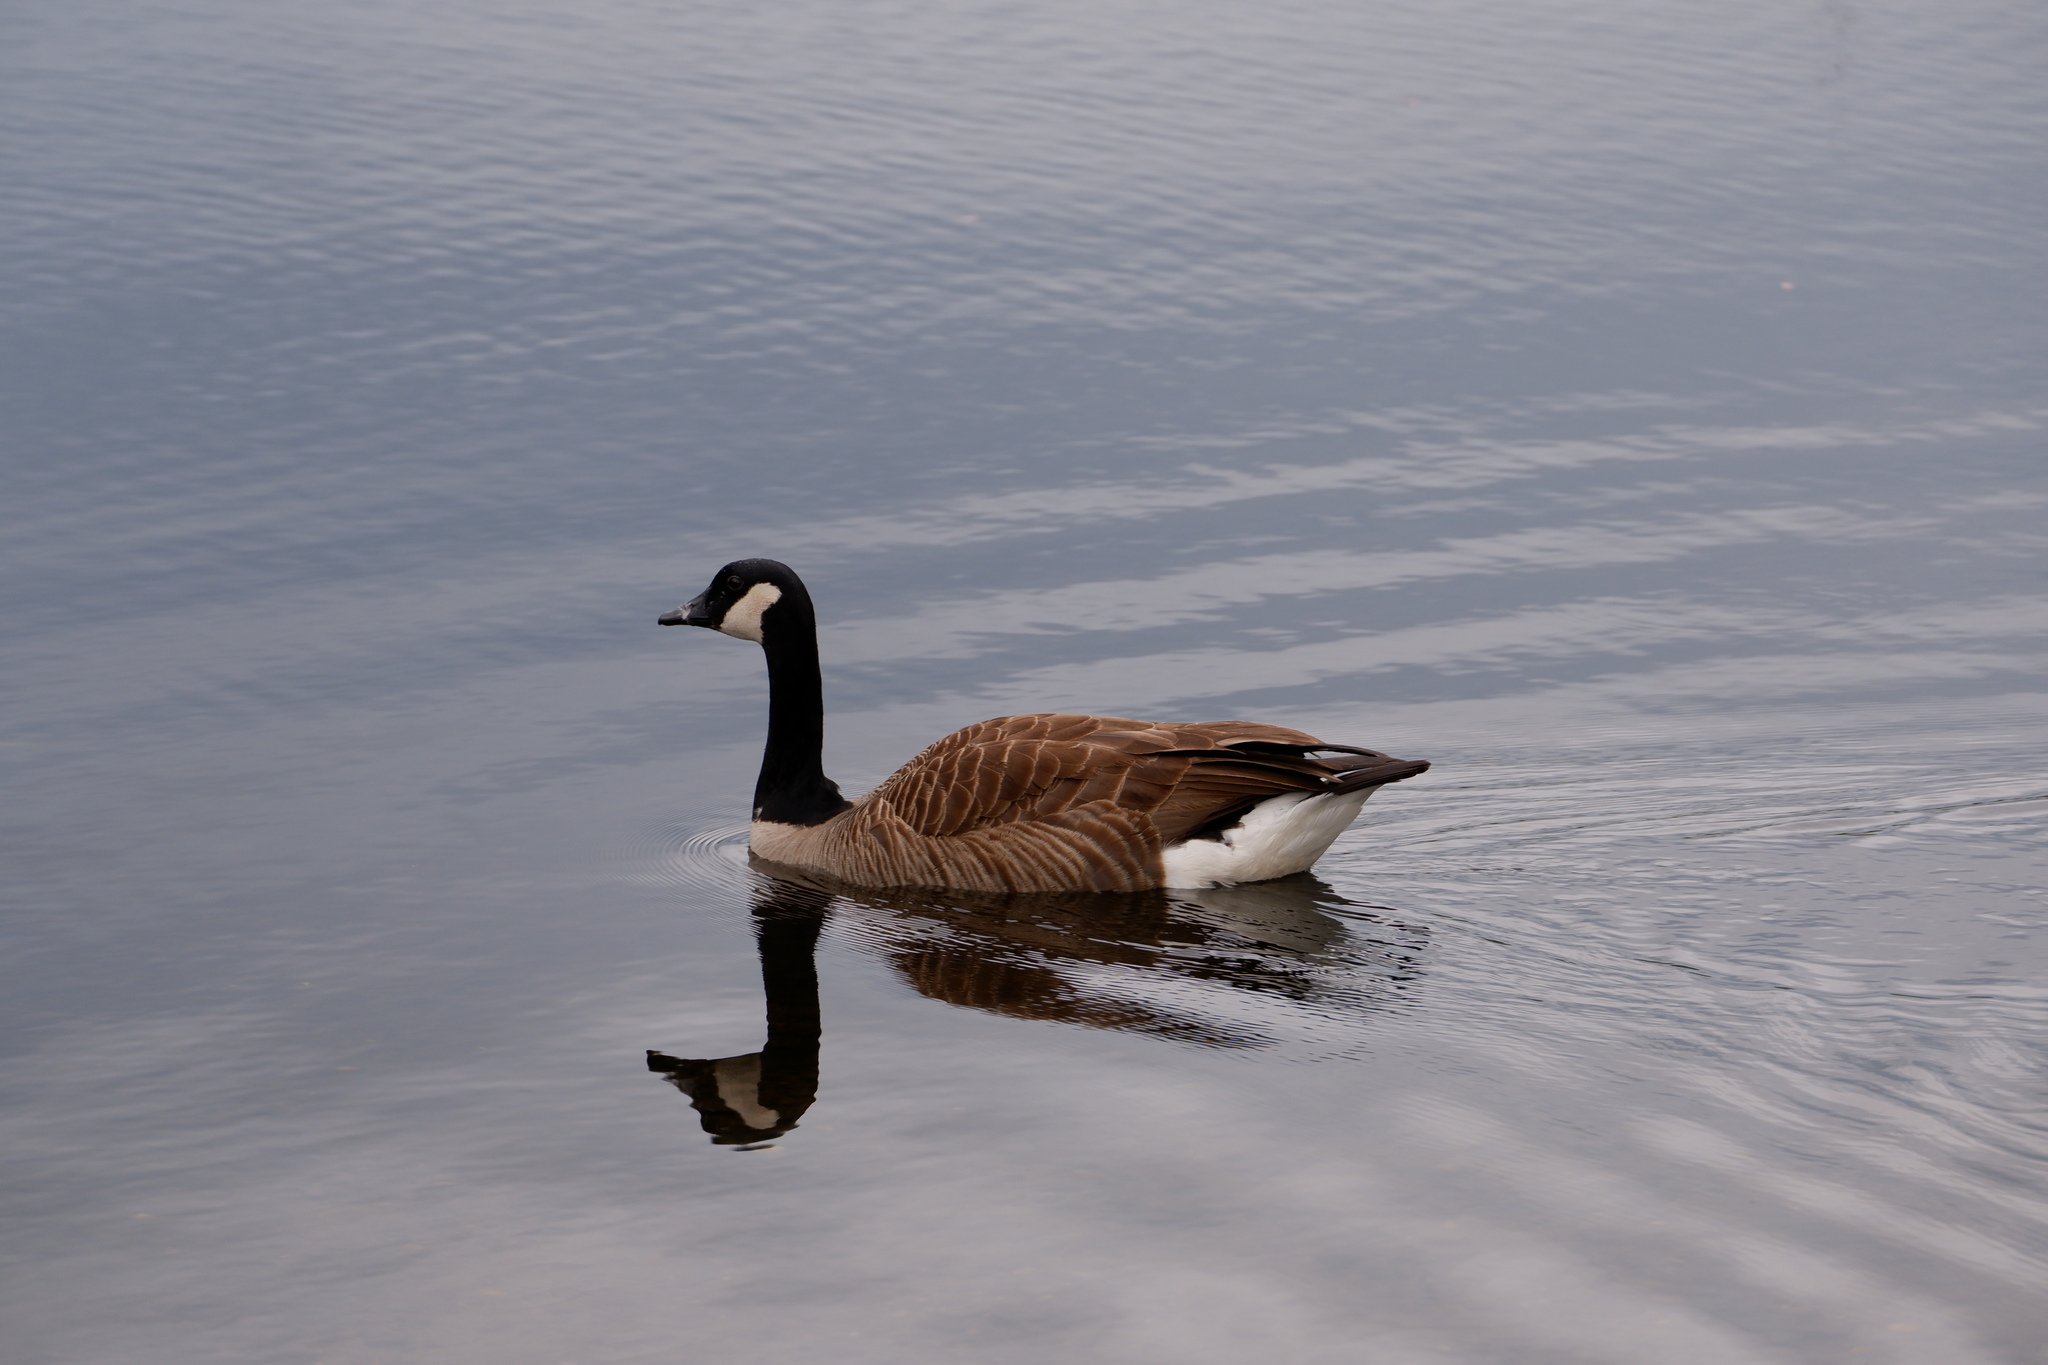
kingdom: Animalia
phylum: Chordata
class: Aves
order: Anseriformes
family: Anatidae
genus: Branta
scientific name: Branta canadensis
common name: Canada goose
